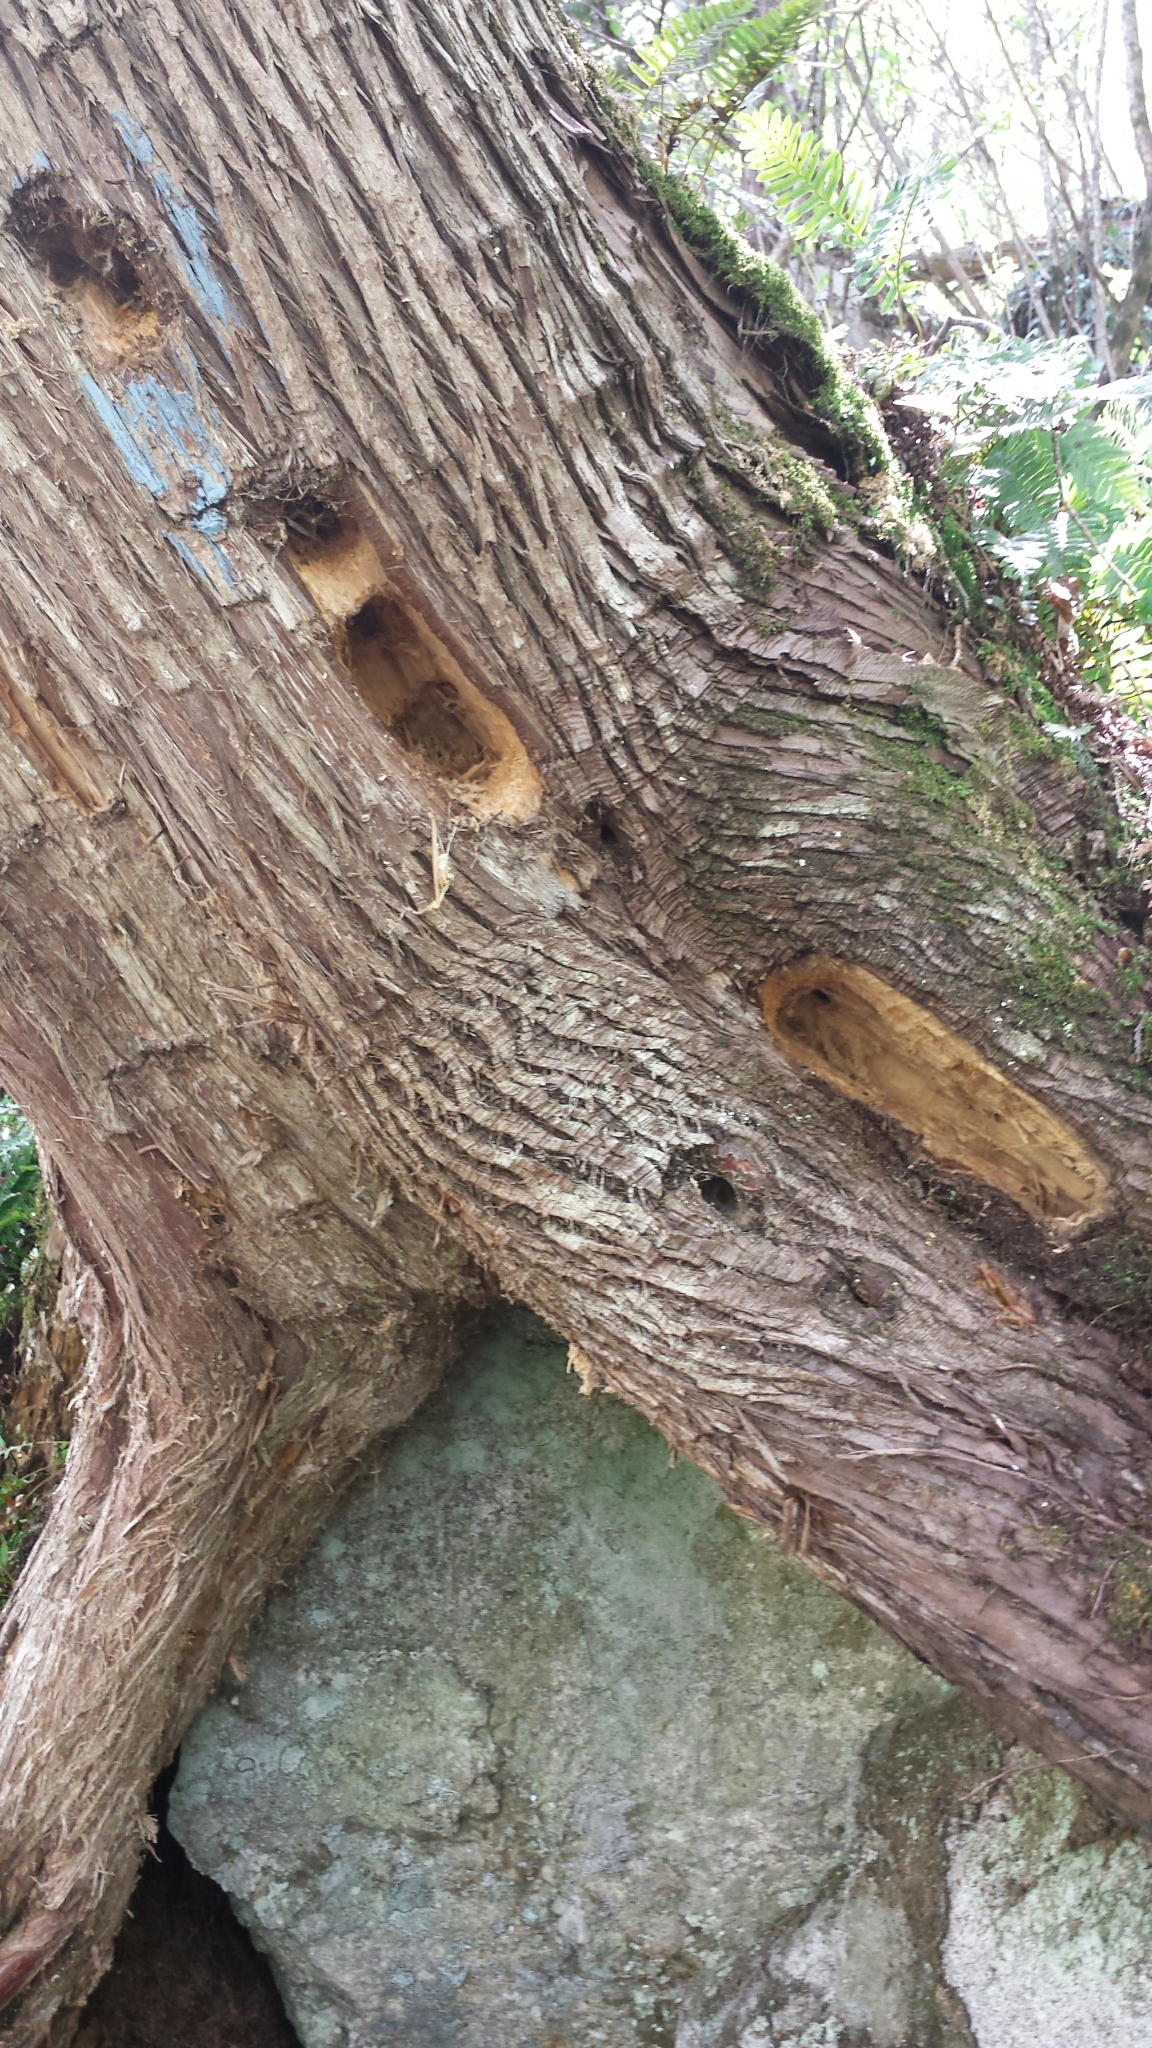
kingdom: Animalia
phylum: Chordata
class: Aves
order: Piciformes
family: Picidae
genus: Dryocopus
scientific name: Dryocopus pileatus
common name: Pileated woodpecker
